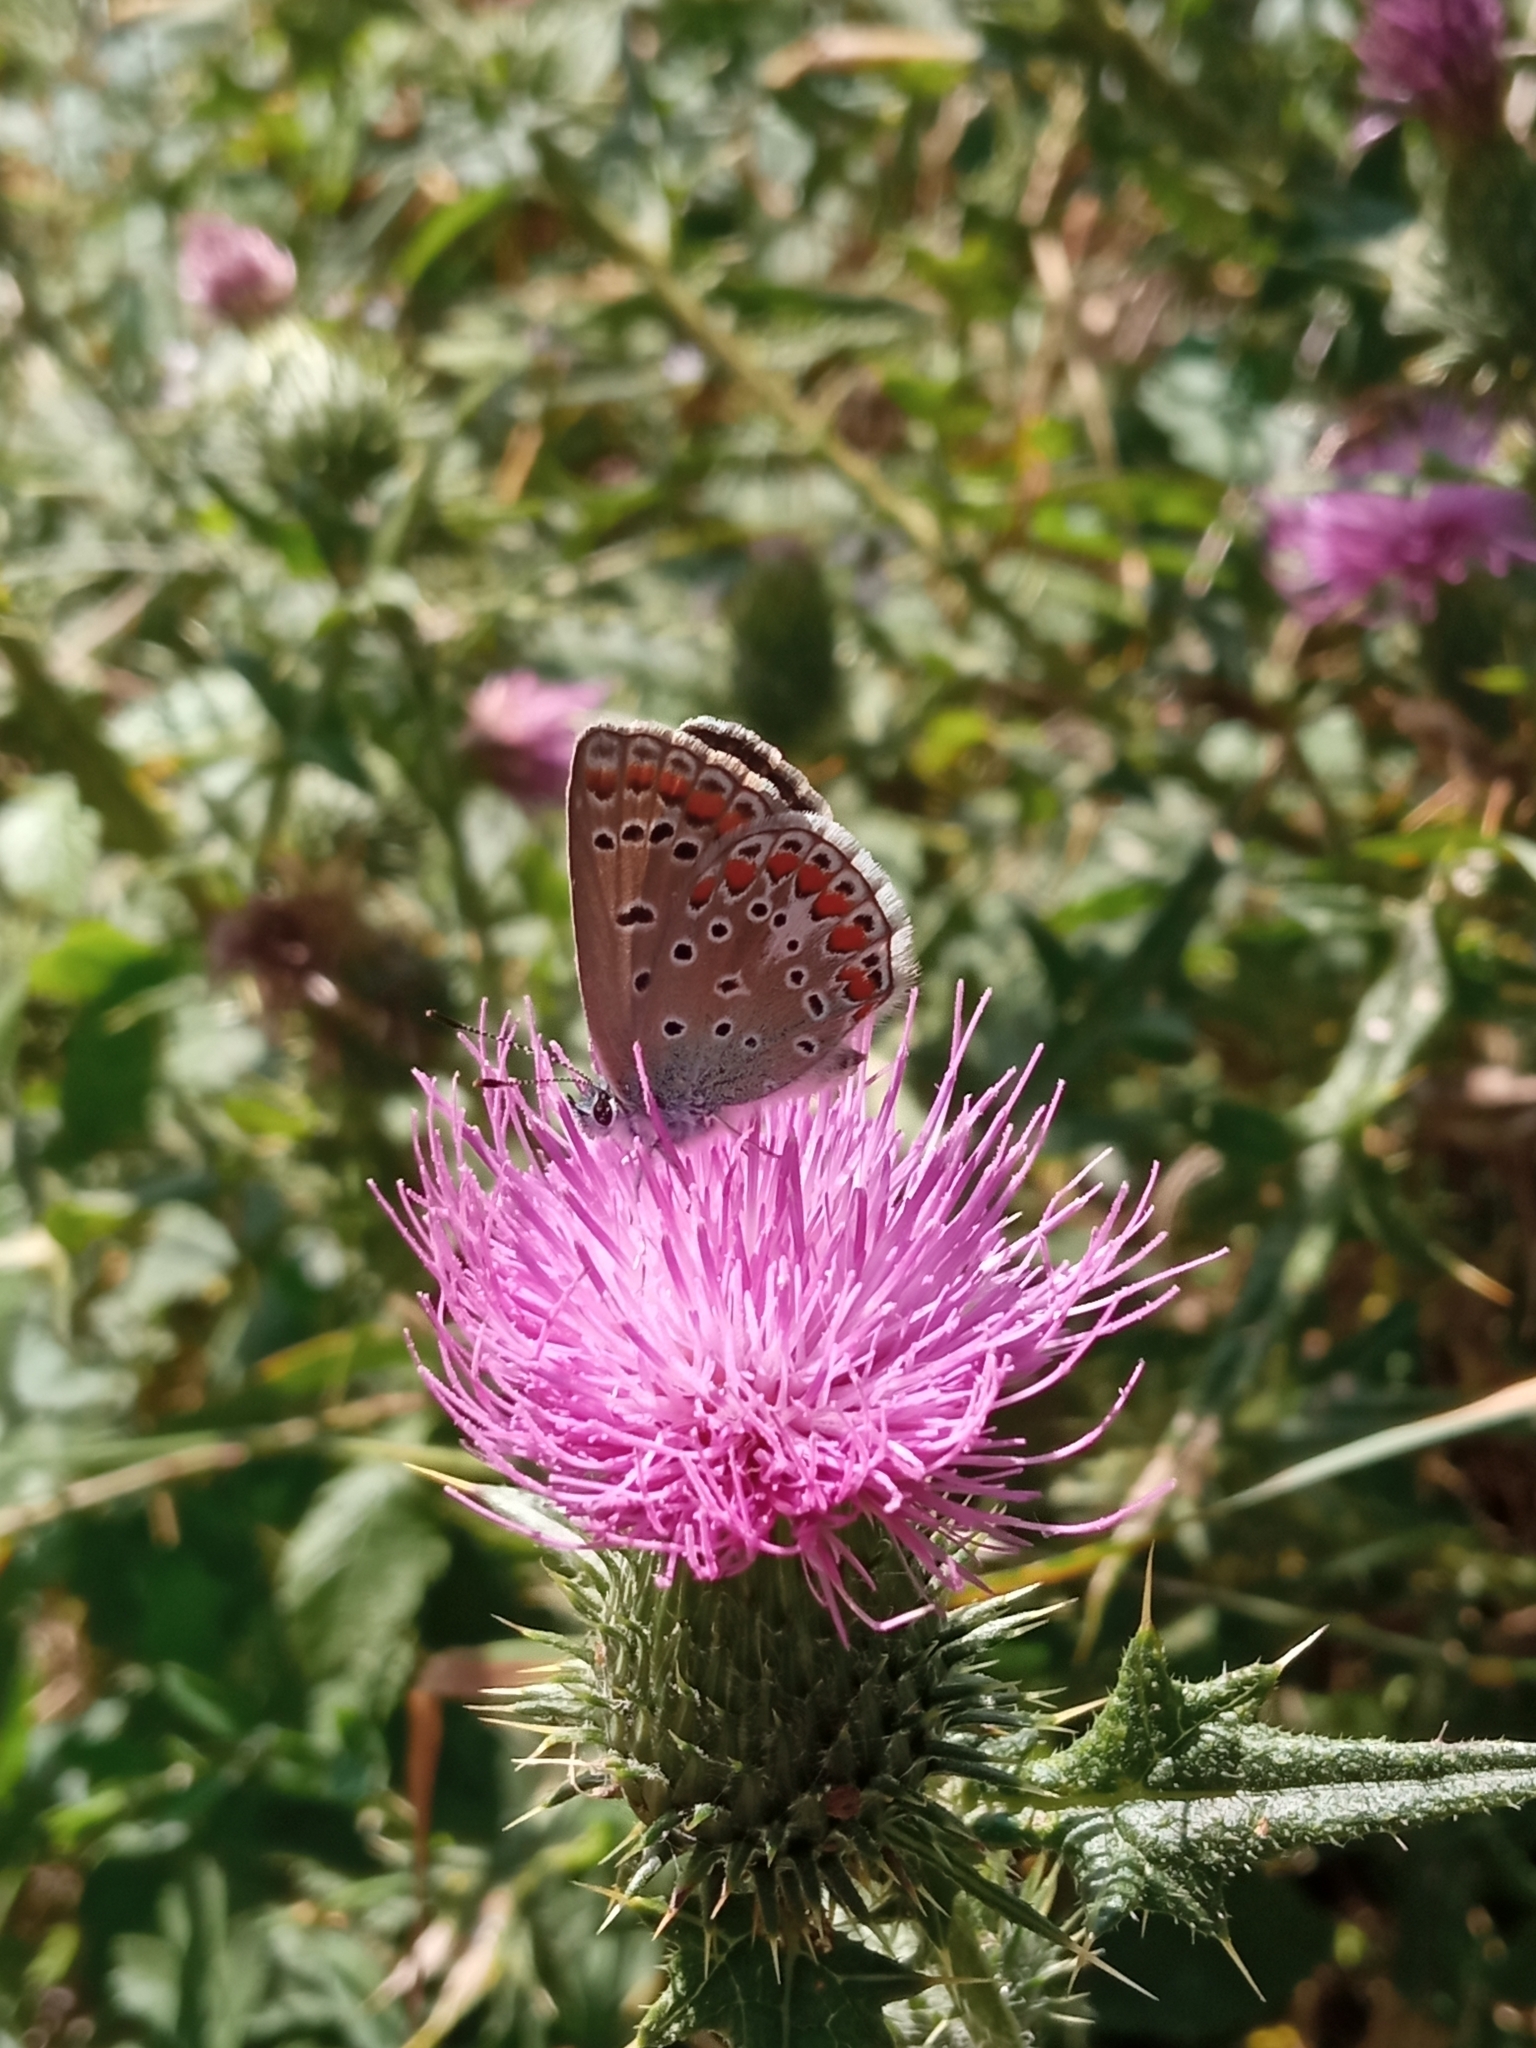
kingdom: Animalia
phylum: Arthropoda
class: Insecta
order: Lepidoptera
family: Lycaenidae
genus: Polyommatus
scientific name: Polyommatus icarus
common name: Common blue
